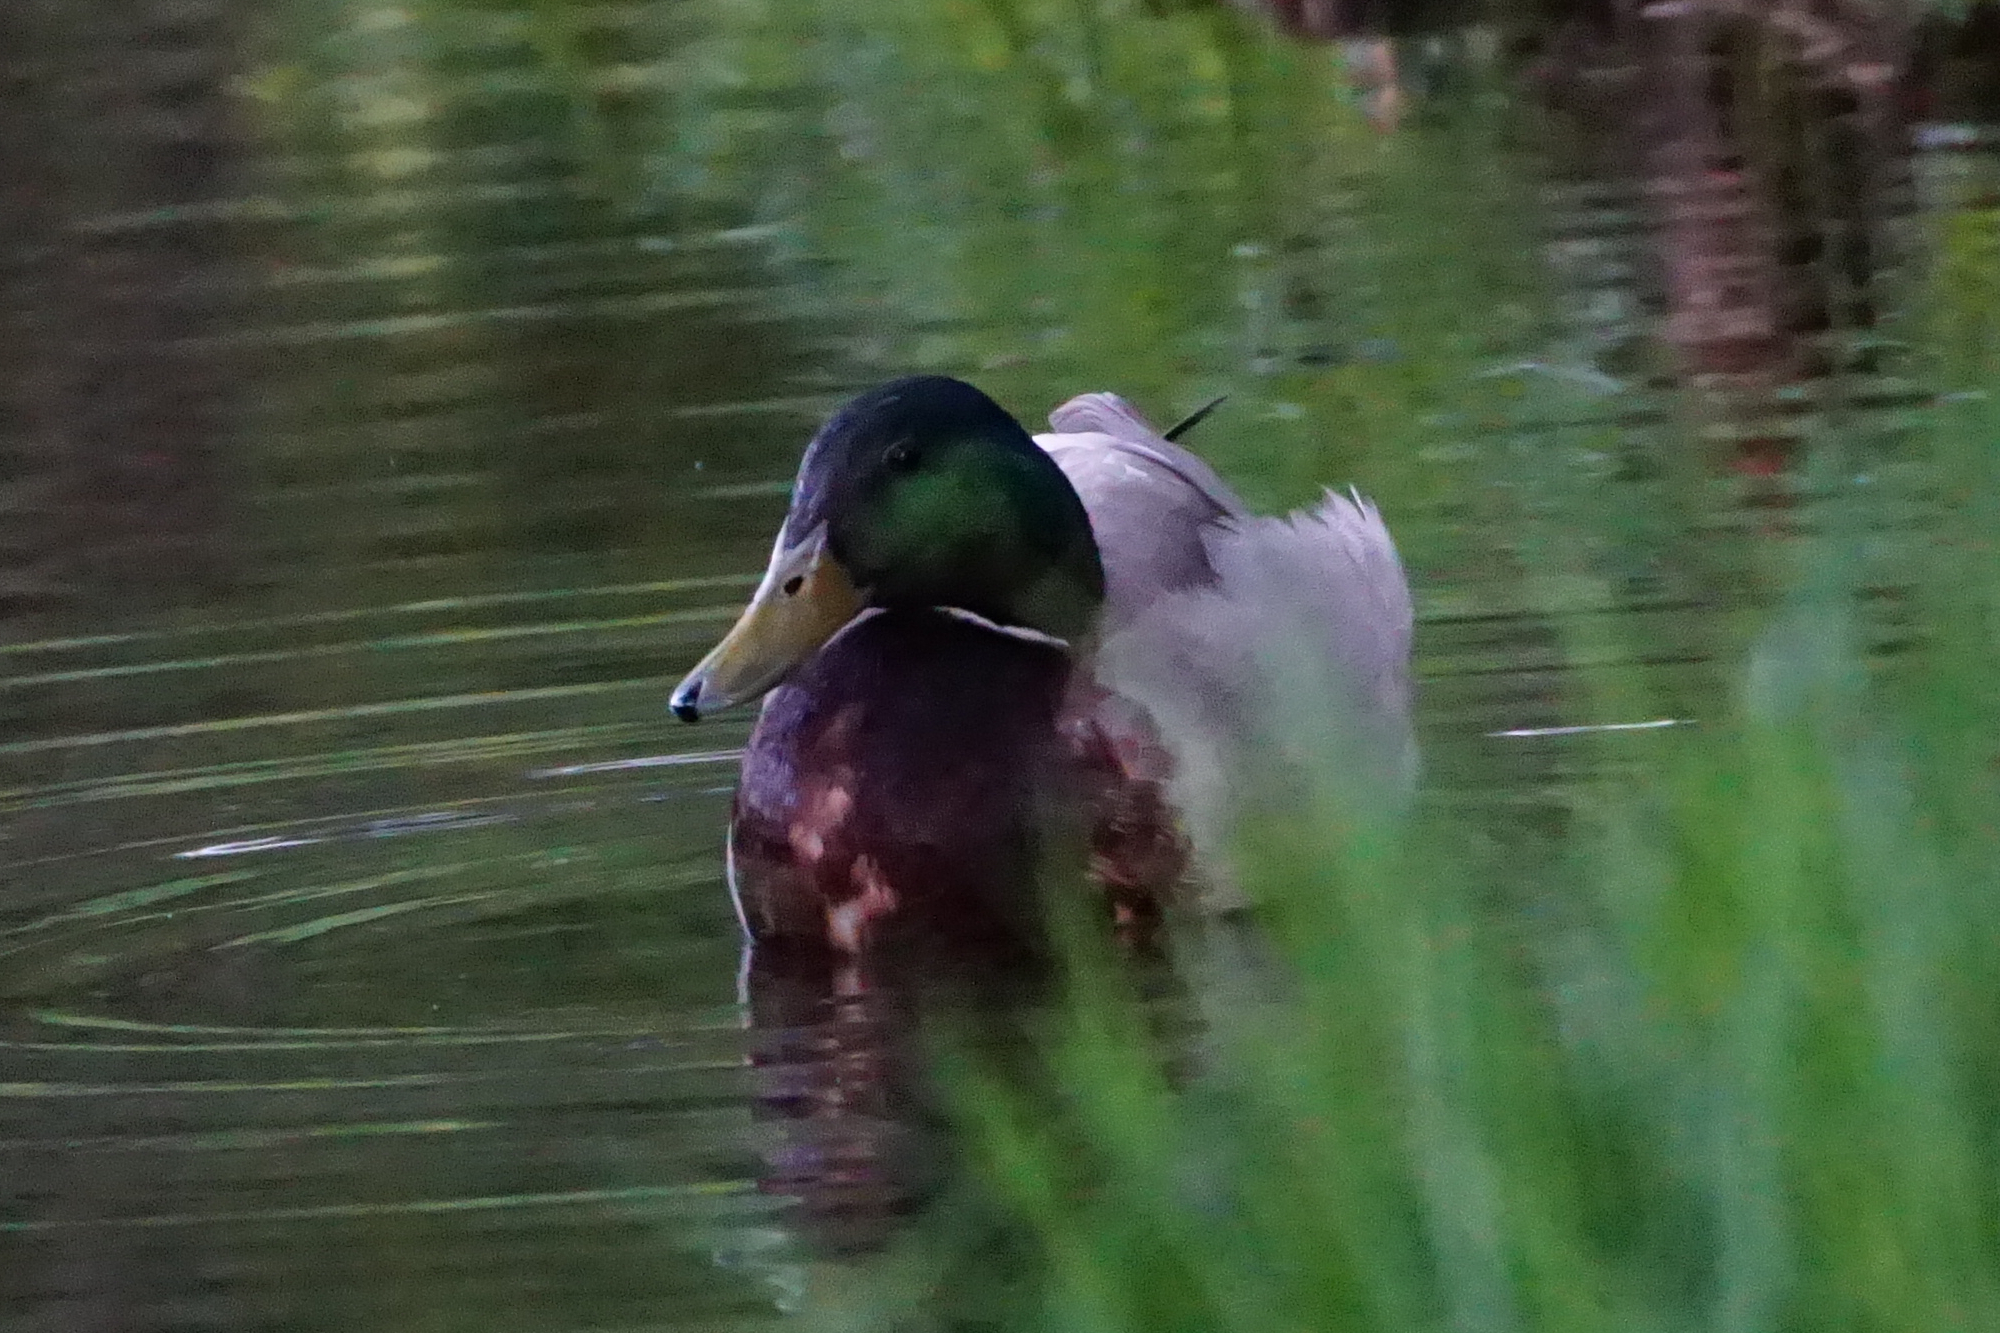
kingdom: Animalia
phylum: Chordata
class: Aves
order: Anseriformes
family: Anatidae
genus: Anas
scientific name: Anas platyrhynchos
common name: Mallard
